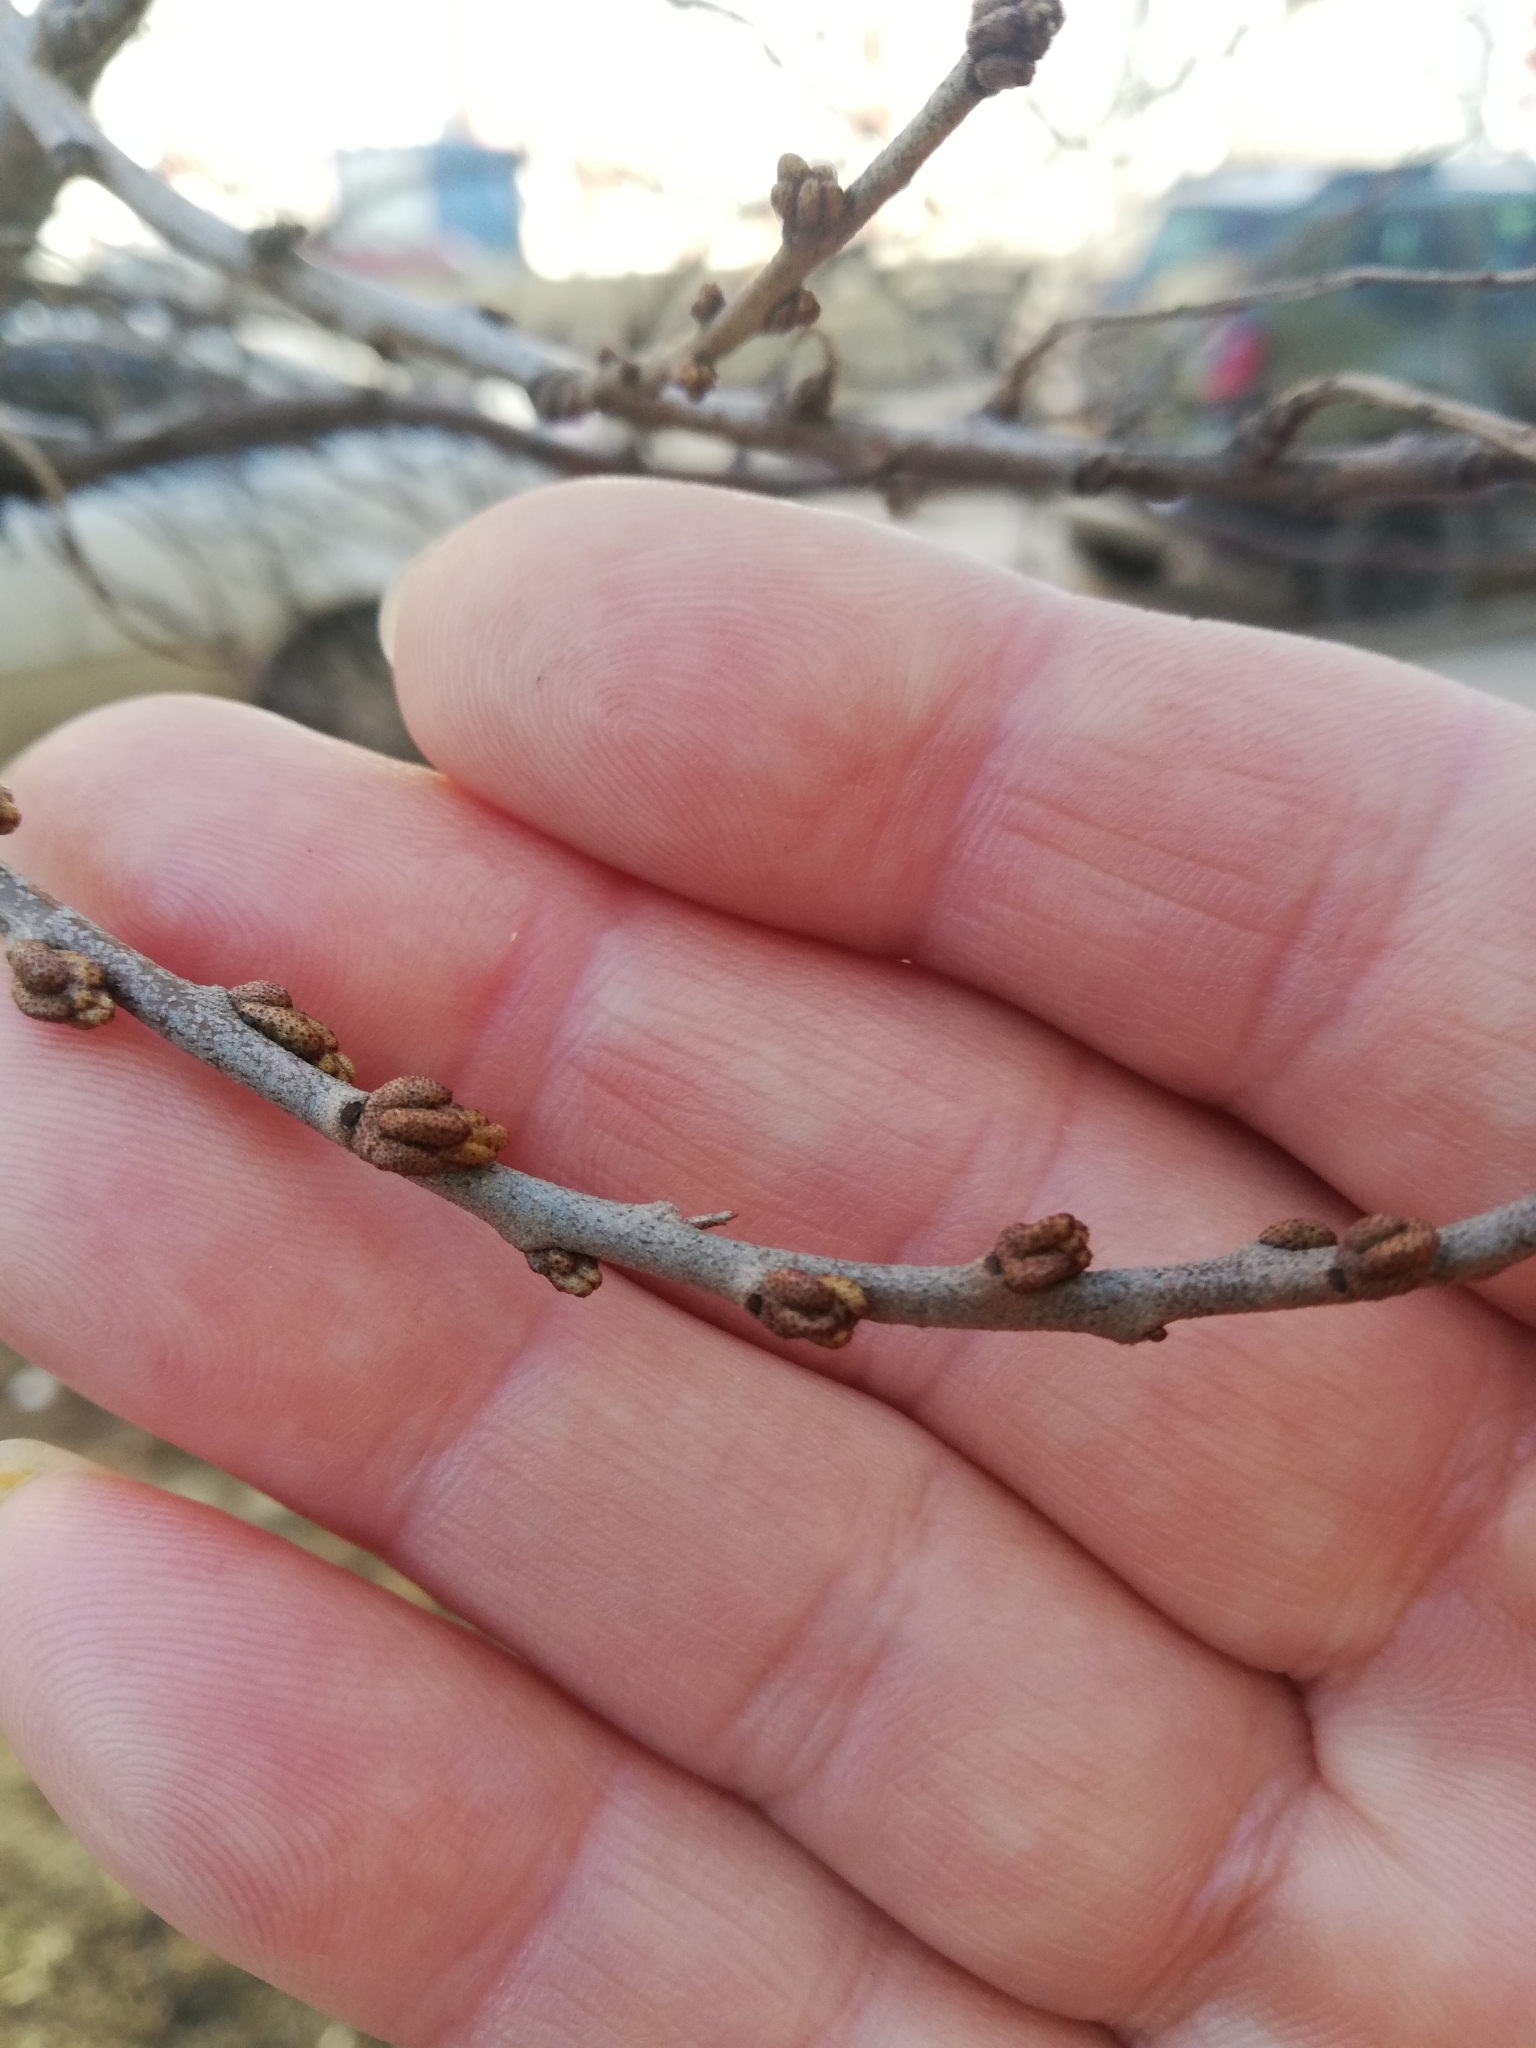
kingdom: Plantae
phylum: Tracheophyta
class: Magnoliopsida
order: Rosales
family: Elaeagnaceae
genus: Hippophae
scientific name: Hippophae rhamnoides
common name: Sea-buckthorn
